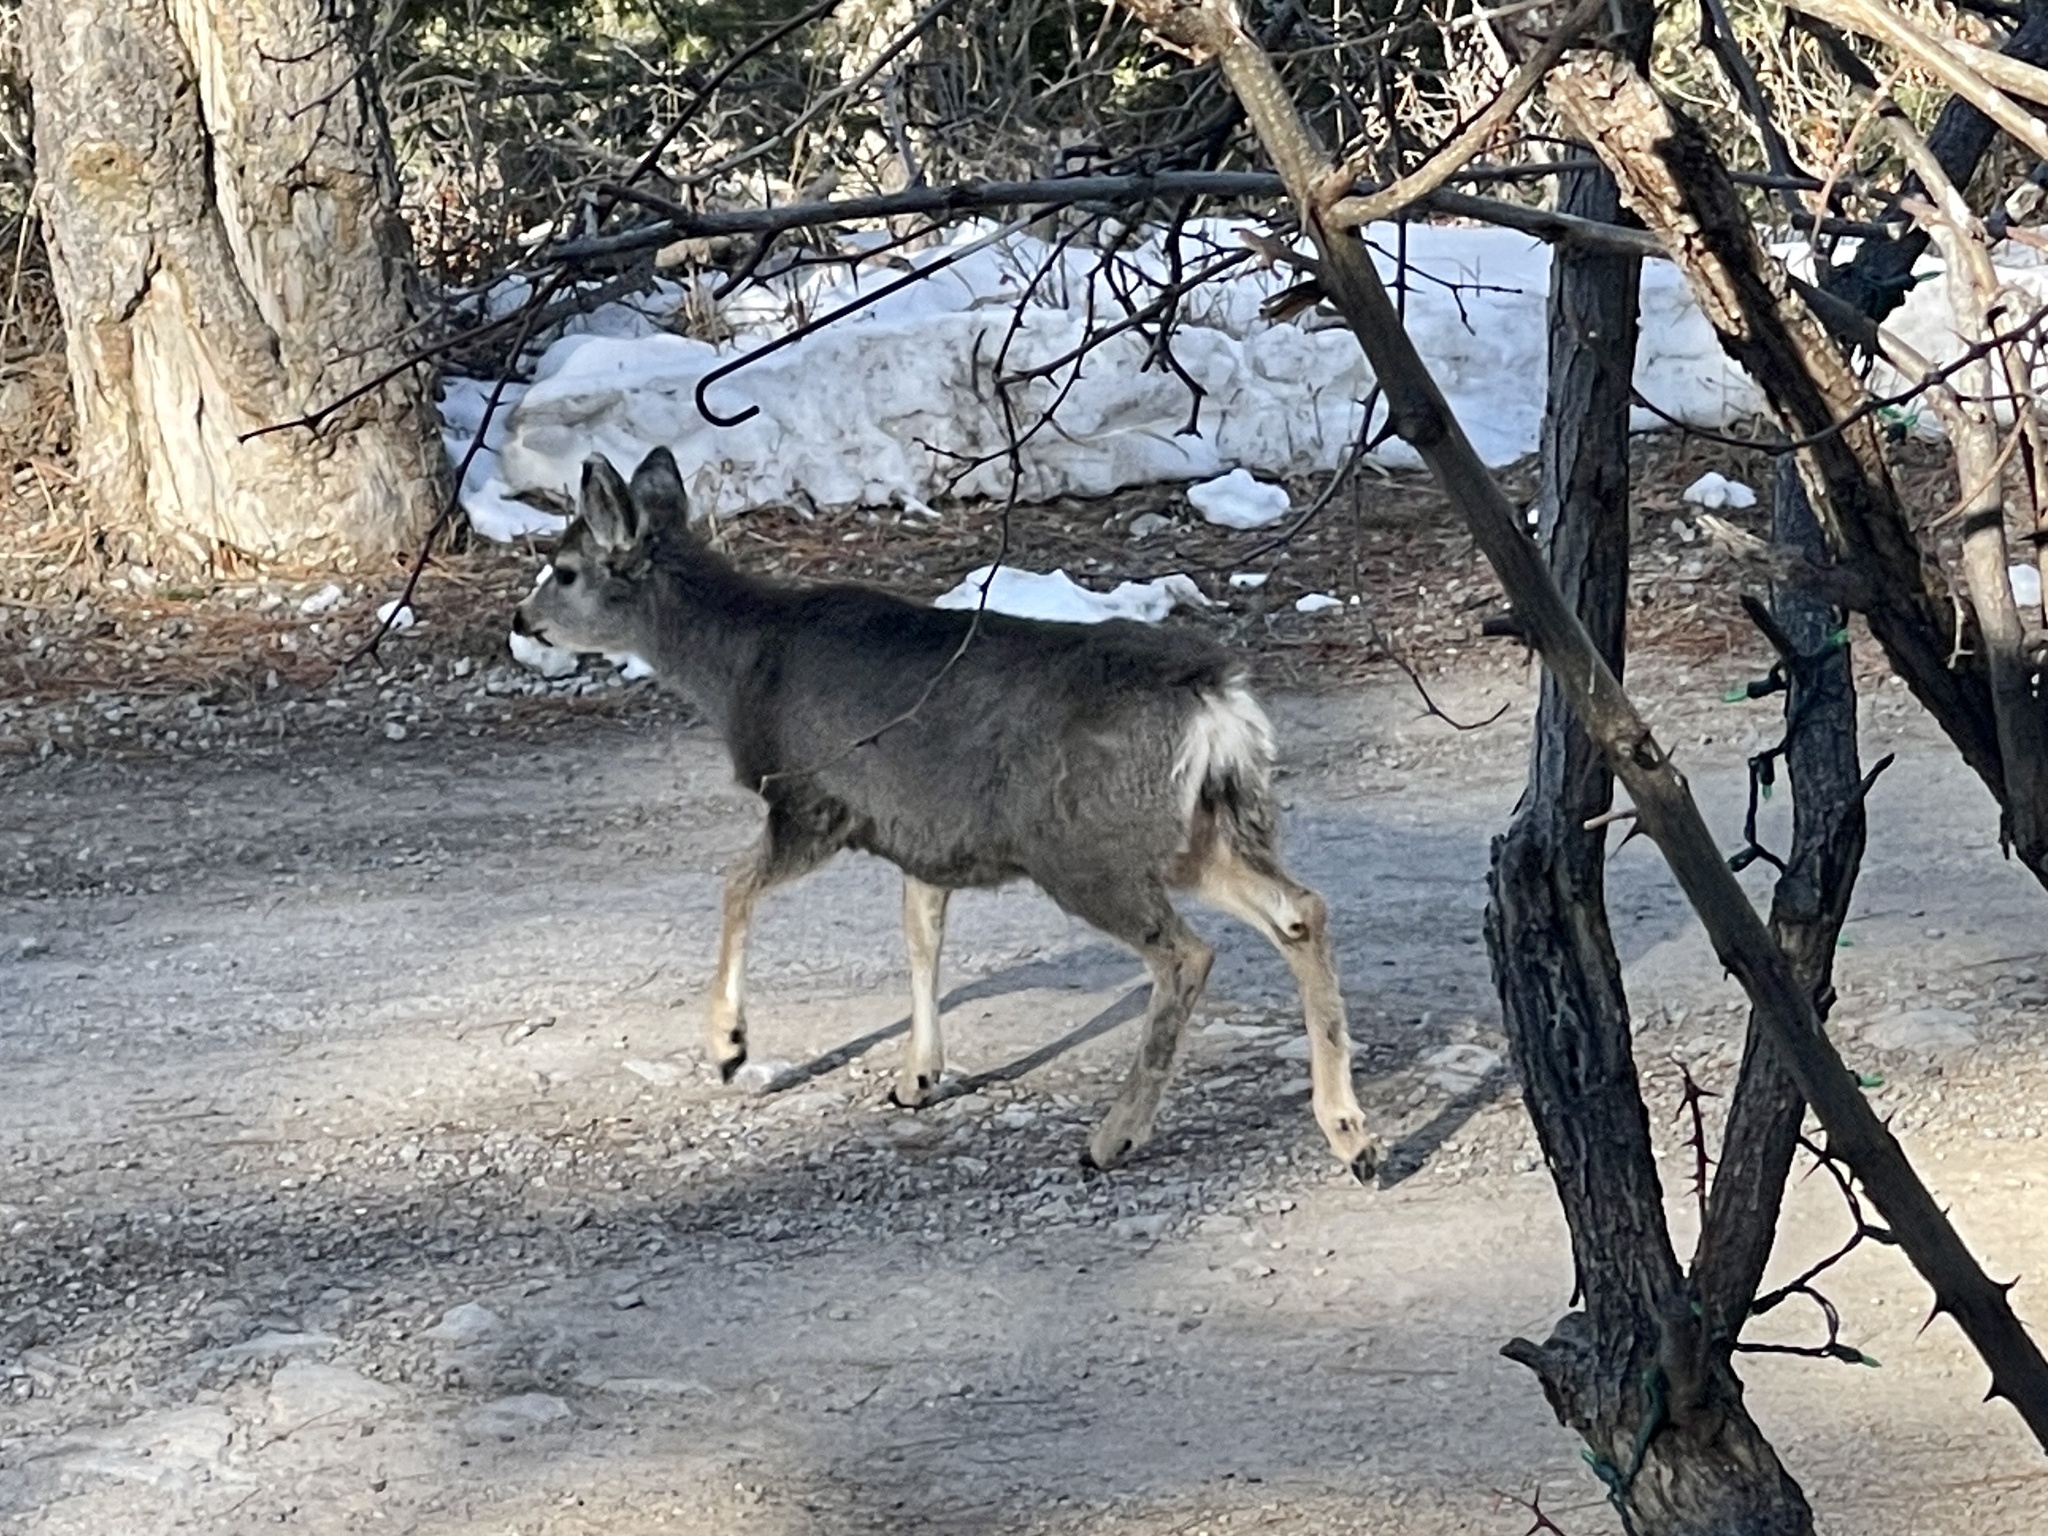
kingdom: Animalia
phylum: Chordata
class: Mammalia
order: Artiodactyla
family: Cervidae
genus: Odocoileus
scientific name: Odocoileus hemionus
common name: Mule deer
